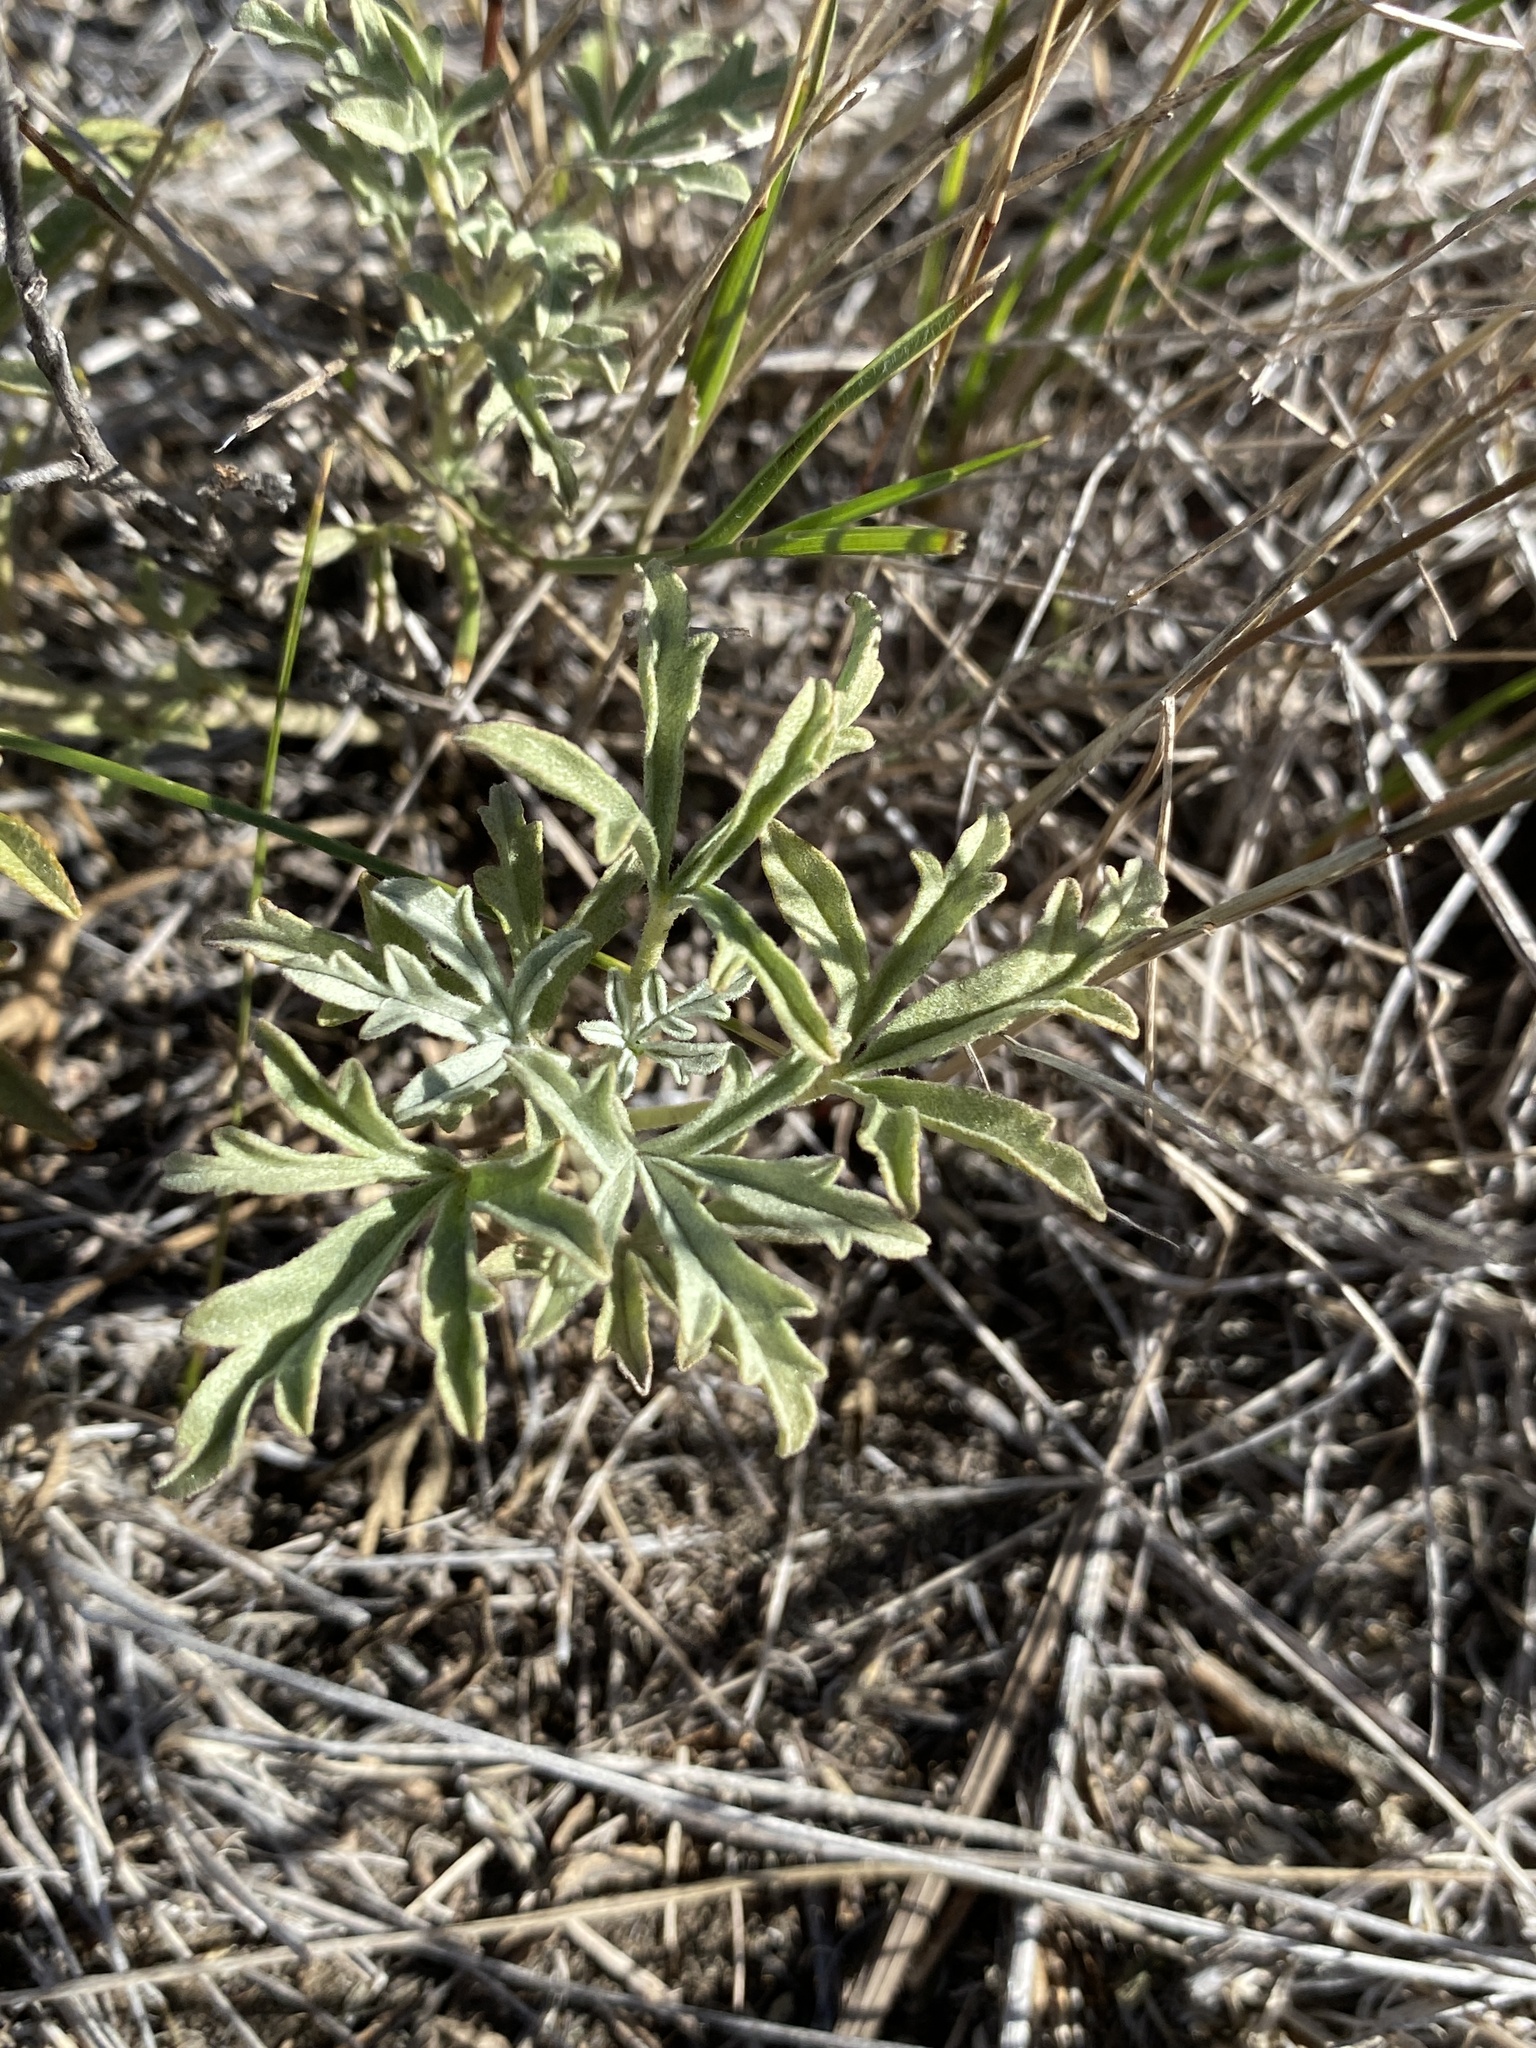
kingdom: Plantae
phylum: Tracheophyta
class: Magnoliopsida
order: Malvales
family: Malvaceae
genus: Sphaeralcea
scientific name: Sphaeralcea coccinea
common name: Moss-rose
